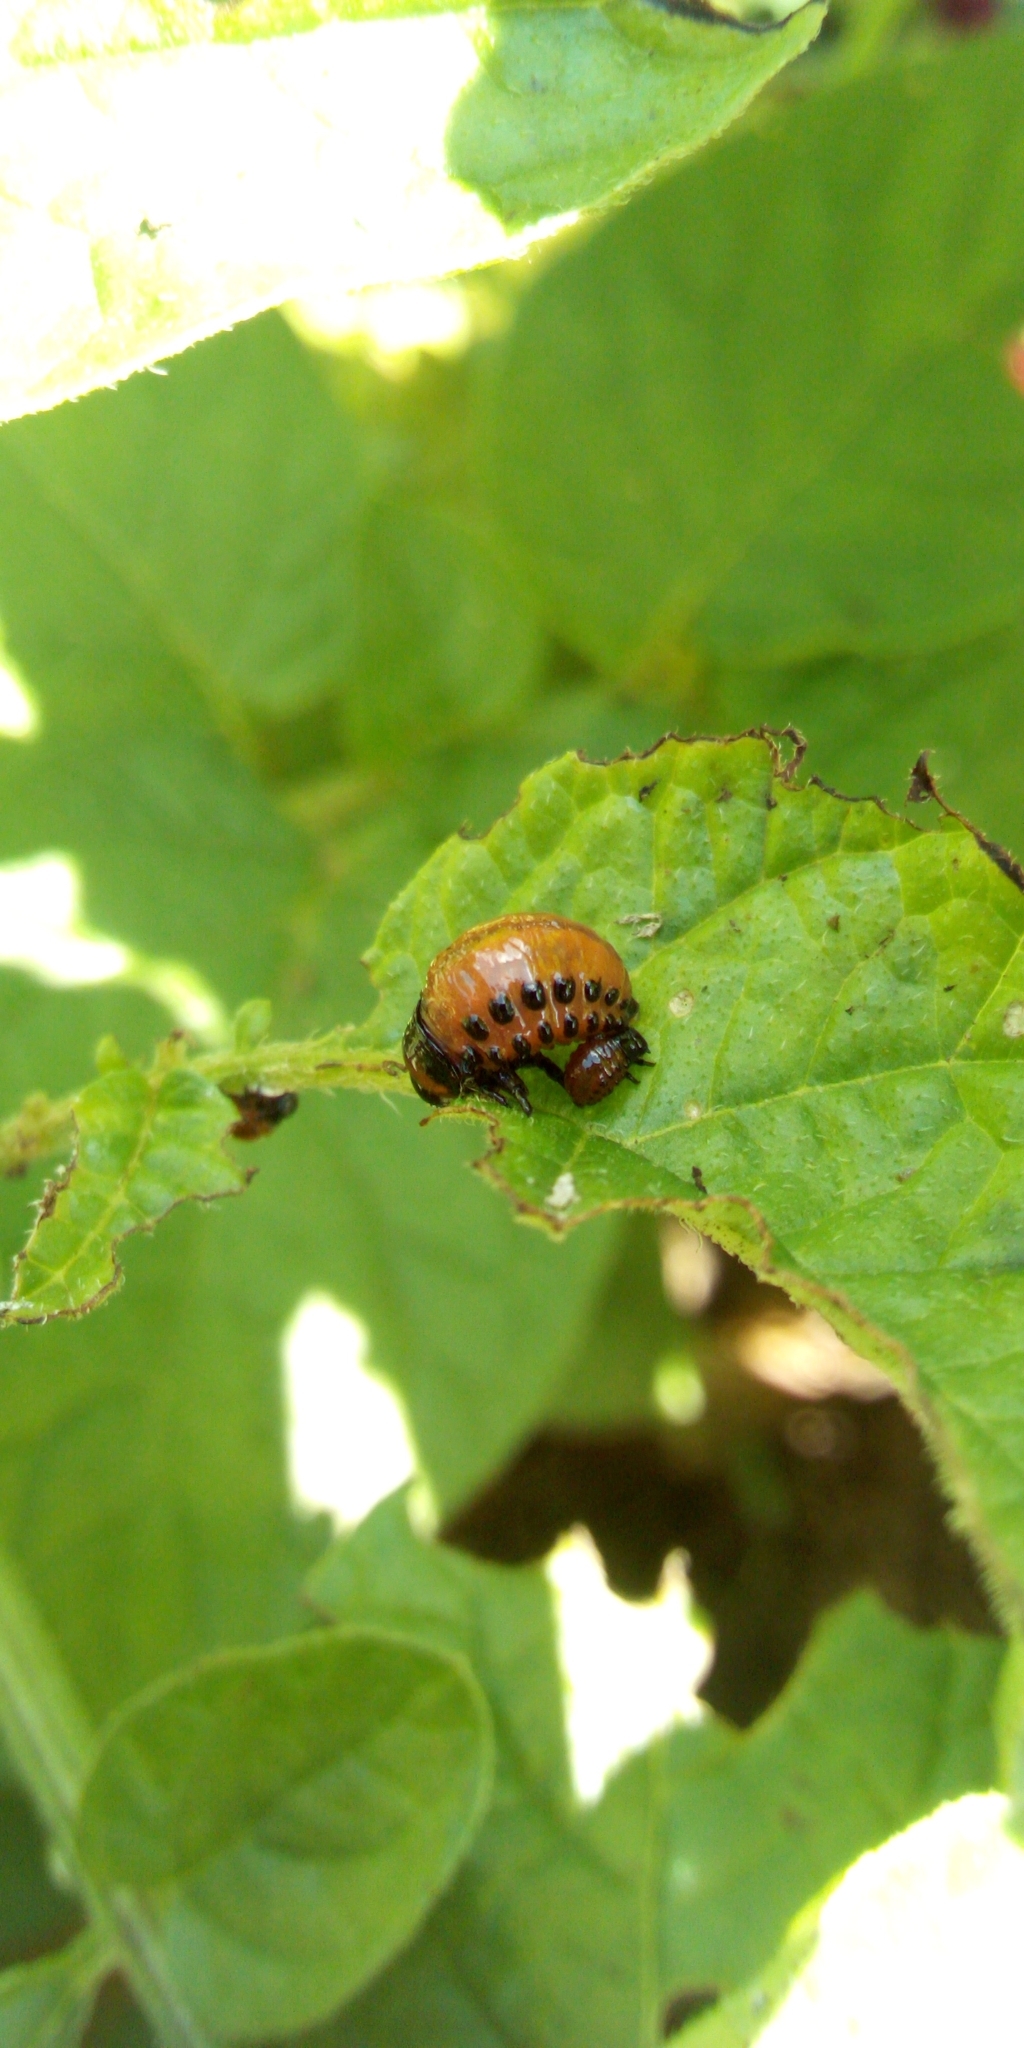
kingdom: Animalia
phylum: Arthropoda
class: Insecta
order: Coleoptera
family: Chrysomelidae
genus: Leptinotarsa
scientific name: Leptinotarsa decemlineata
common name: Colorado potato beetle
